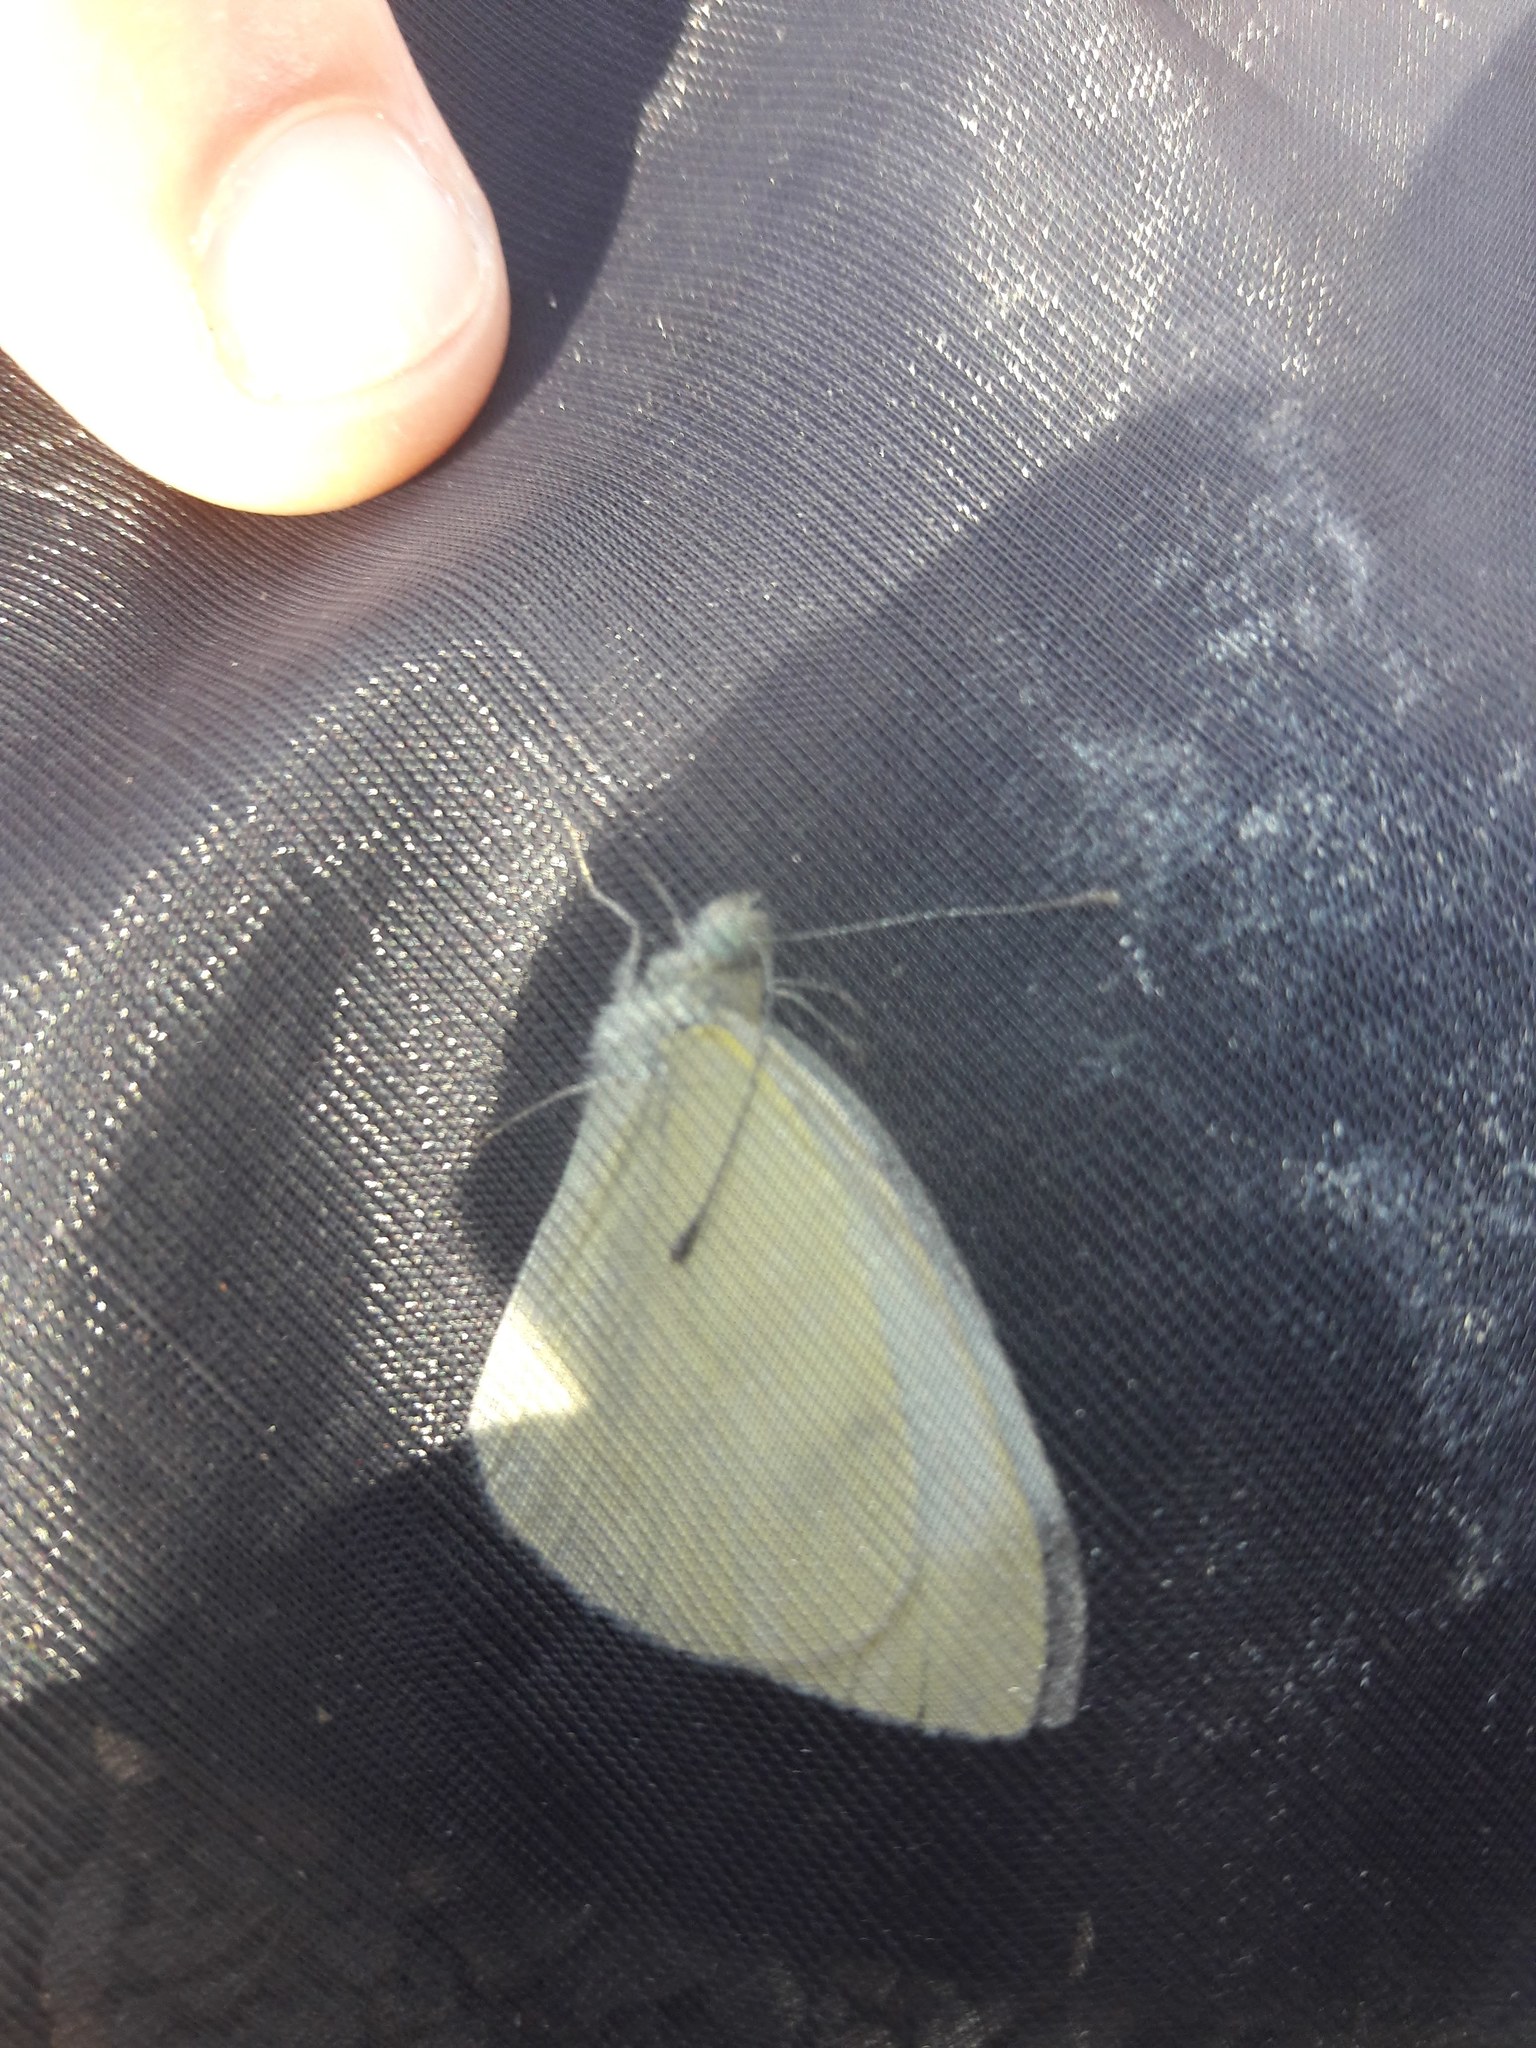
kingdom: Animalia
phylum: Arthropoda
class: Insecta
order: Lepidoptera
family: Pieridae
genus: Pieris
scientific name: Pieris rapae
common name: Small white
